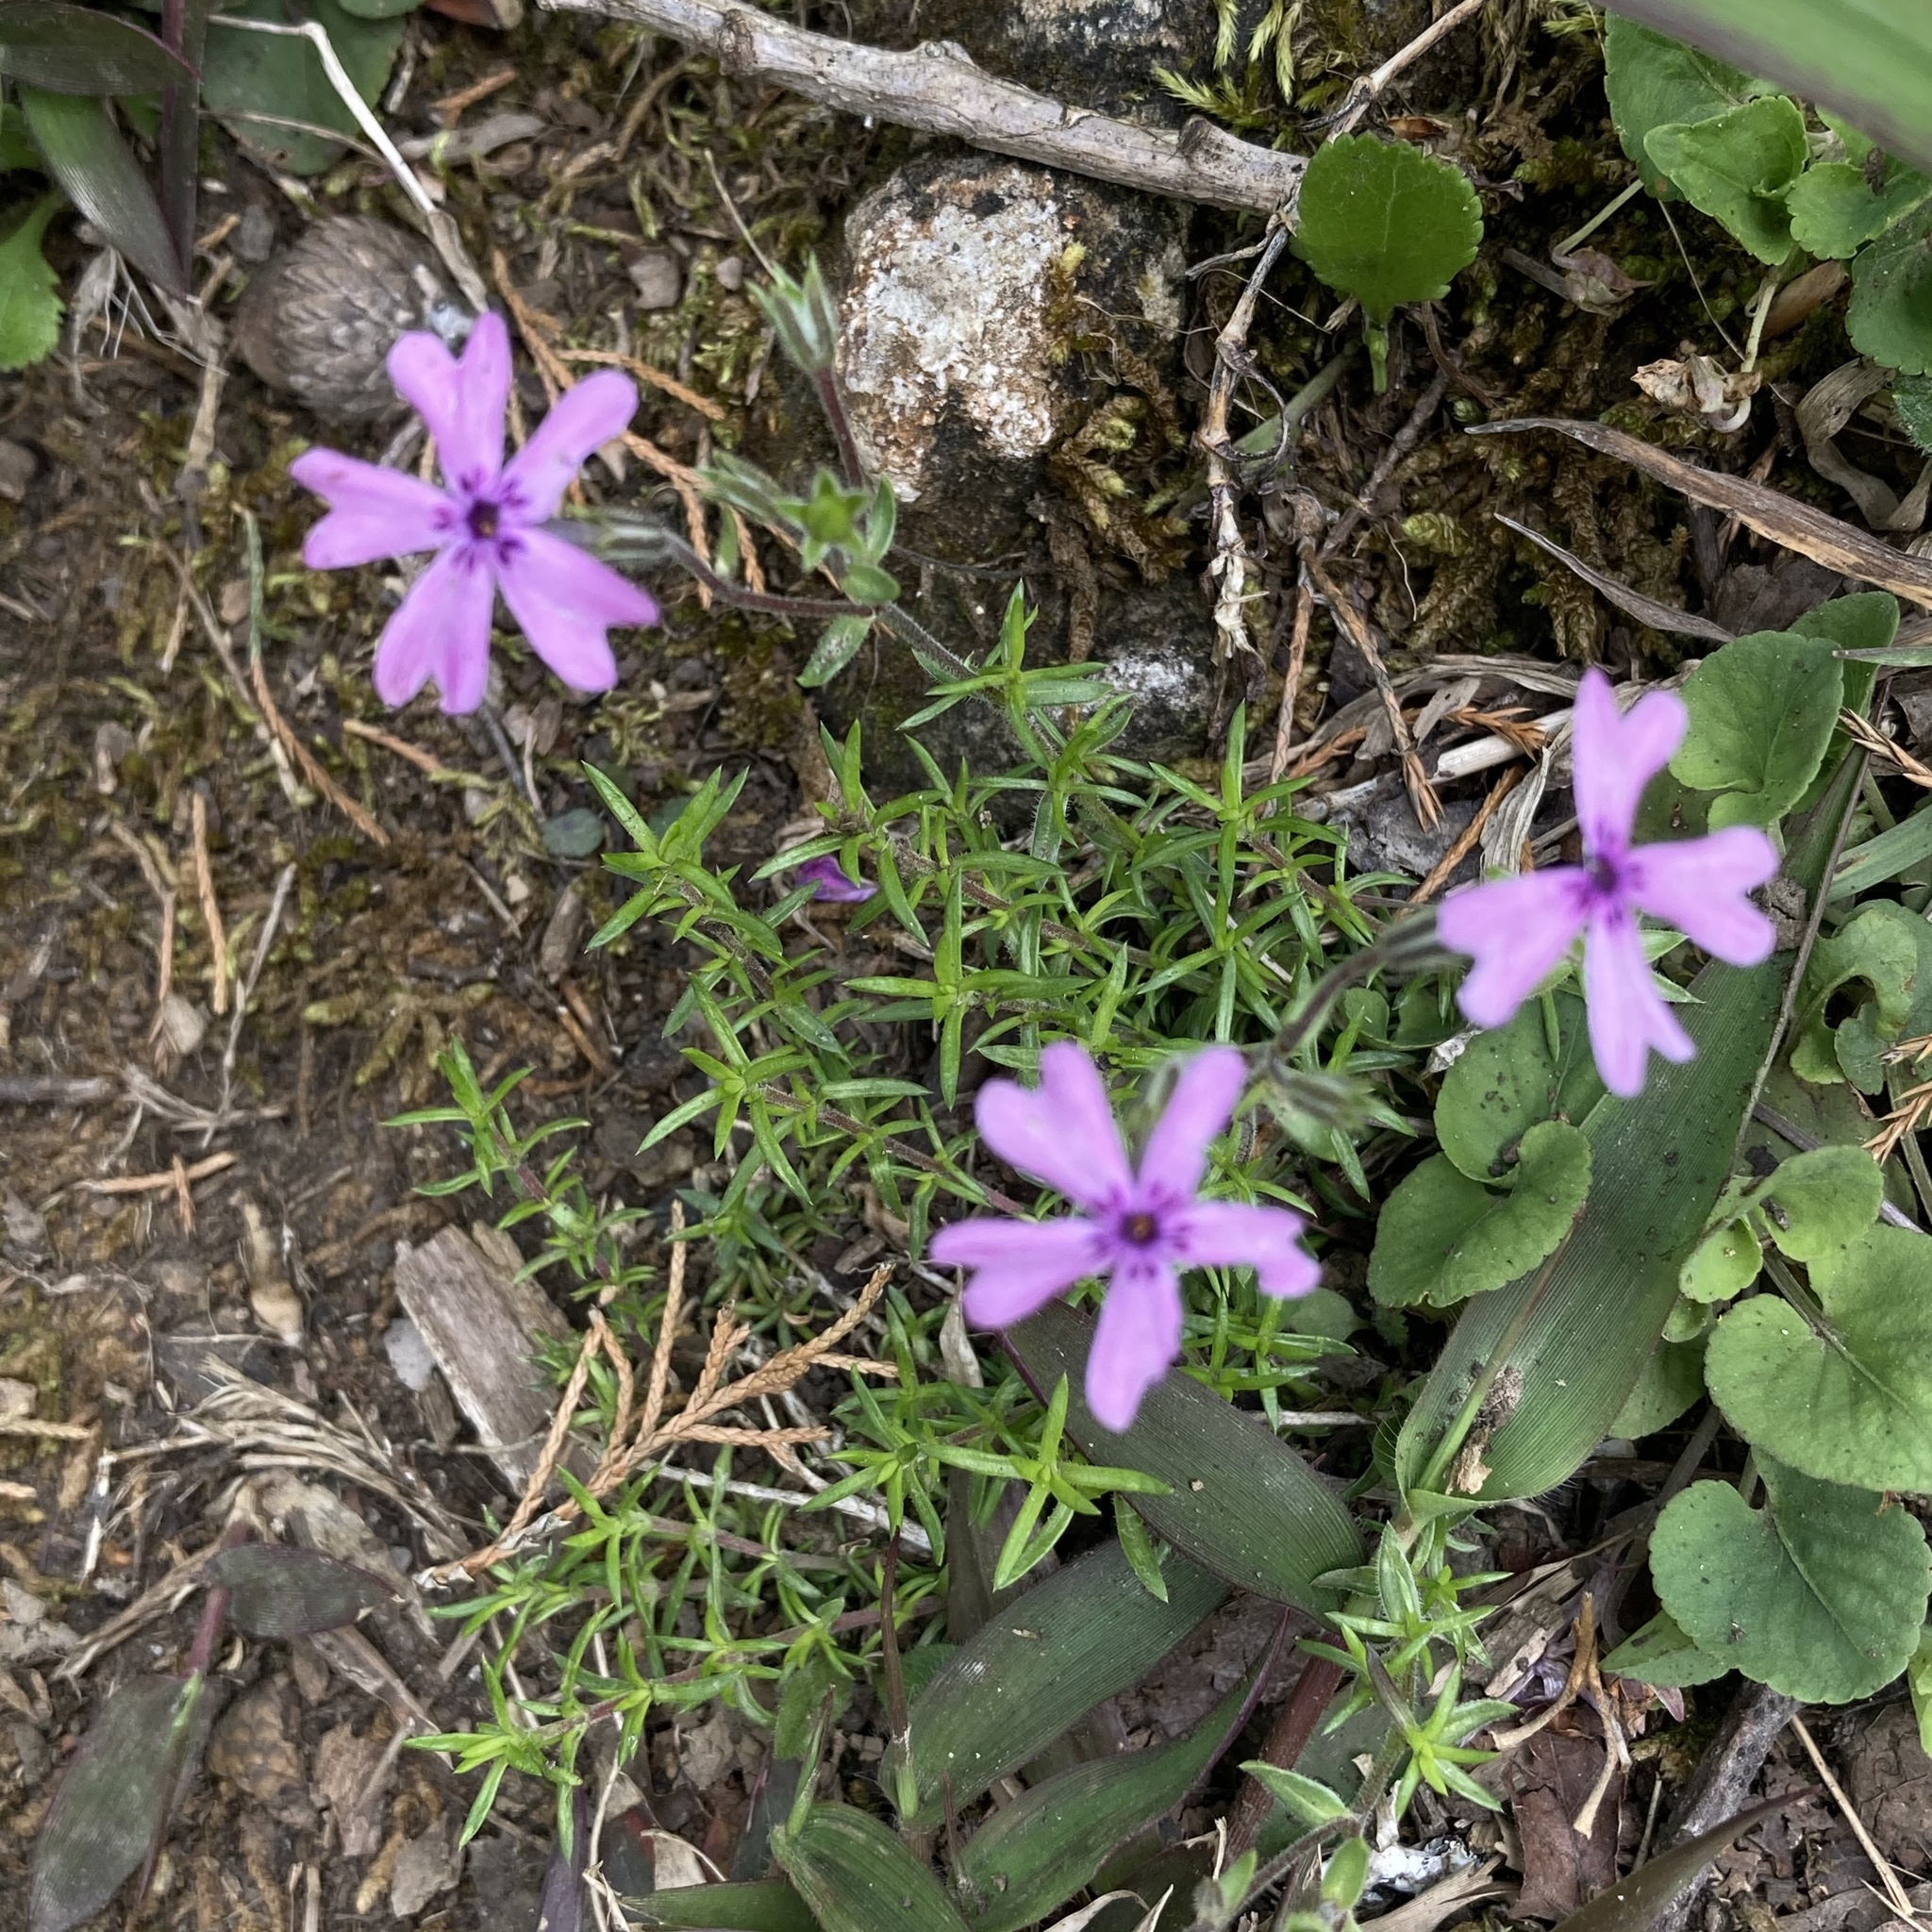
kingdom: Plantae
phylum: Tracheophyta
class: Magnoliopsida
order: Ericales
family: Polemoniaceae
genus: Phlox
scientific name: Phlox subulata
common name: Moss phlox
